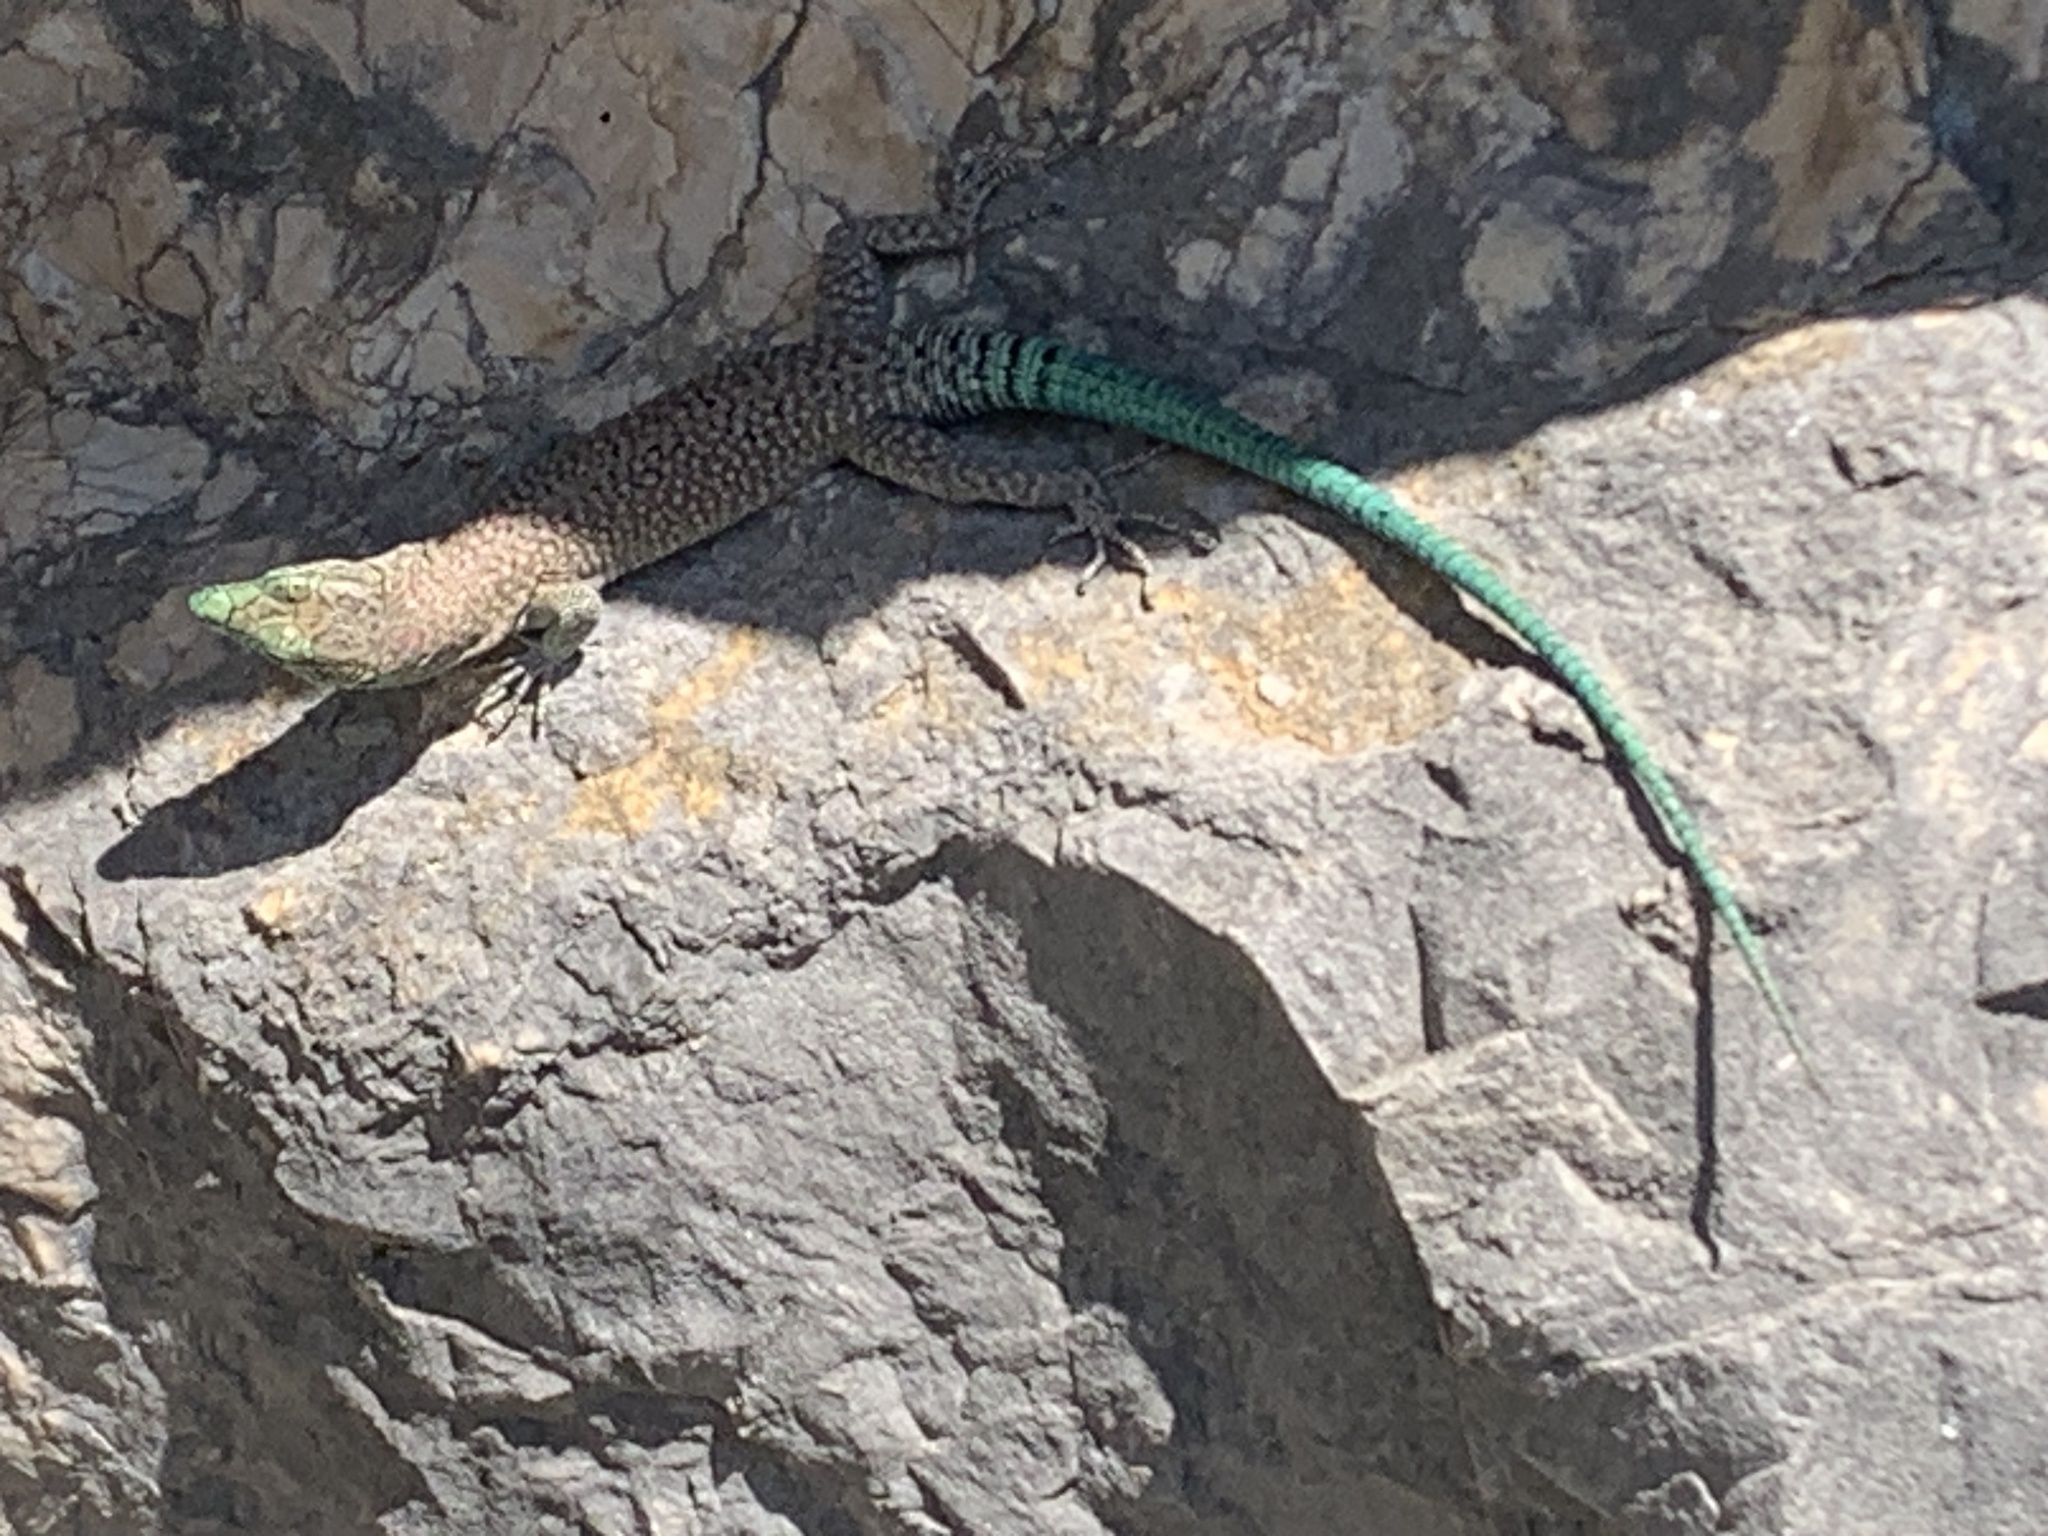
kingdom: Animalia
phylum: Chordata
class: Squamata
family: Lacertidae
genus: Dalmatolacerta
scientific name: Dalmatolacerta oxycephala
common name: Sharp-snouted rock lizard
